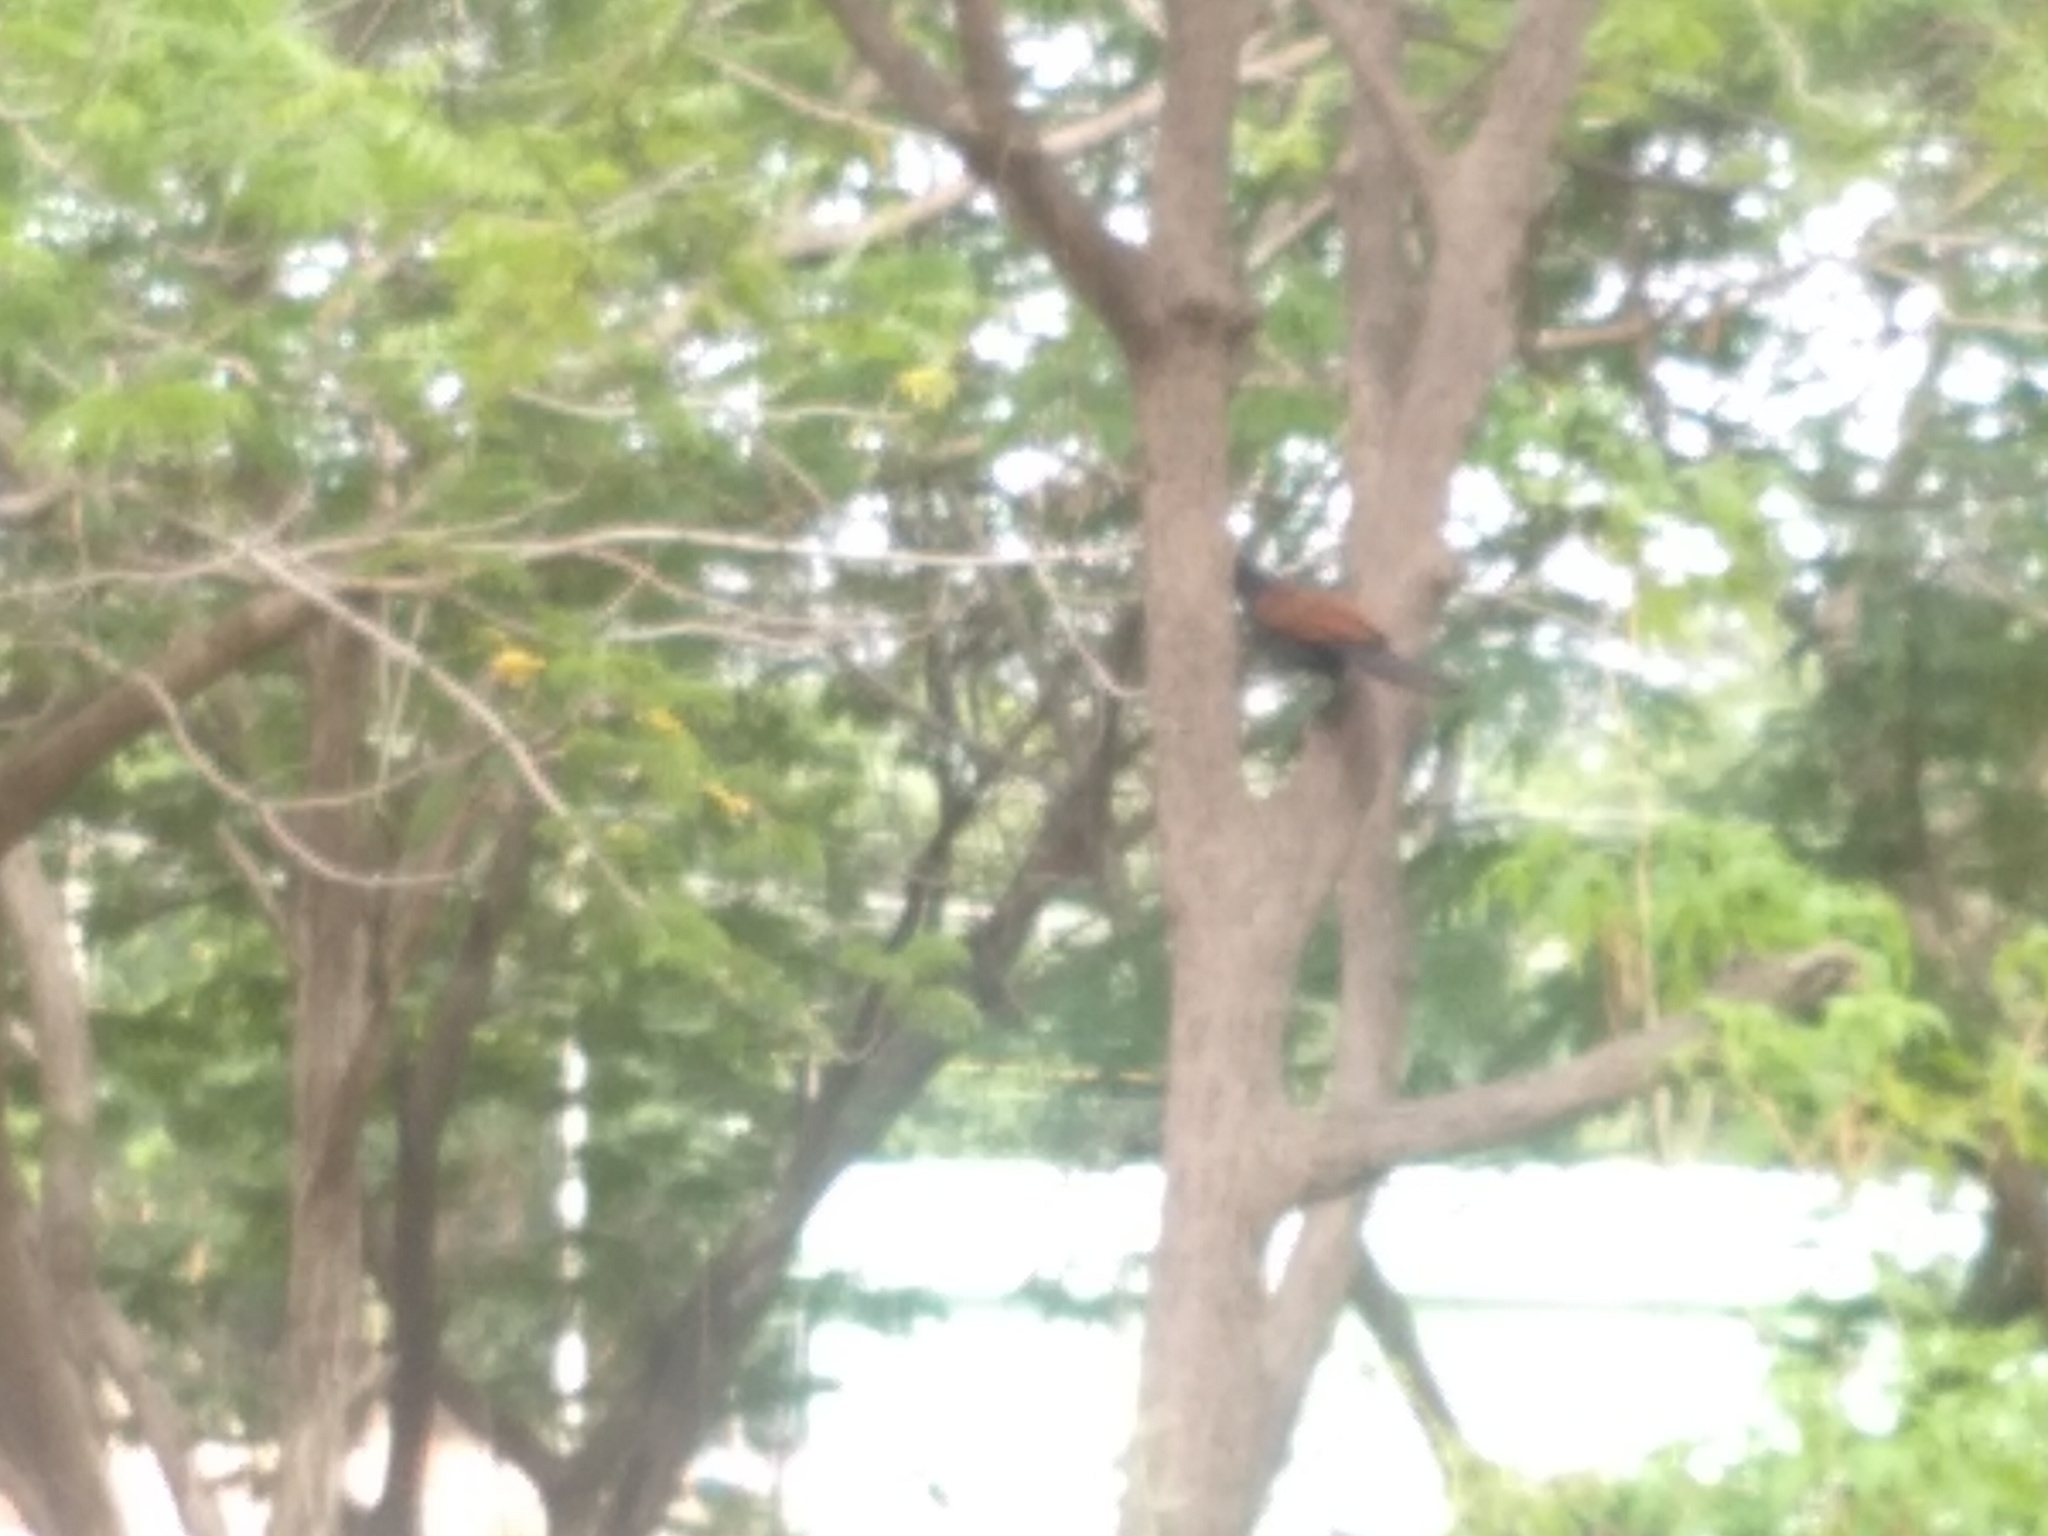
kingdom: Animalia
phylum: Chordata
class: Aves
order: Cuculiformes
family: Cuculidae
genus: Centropus
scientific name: Centropus sinensis
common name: Greater coucal
